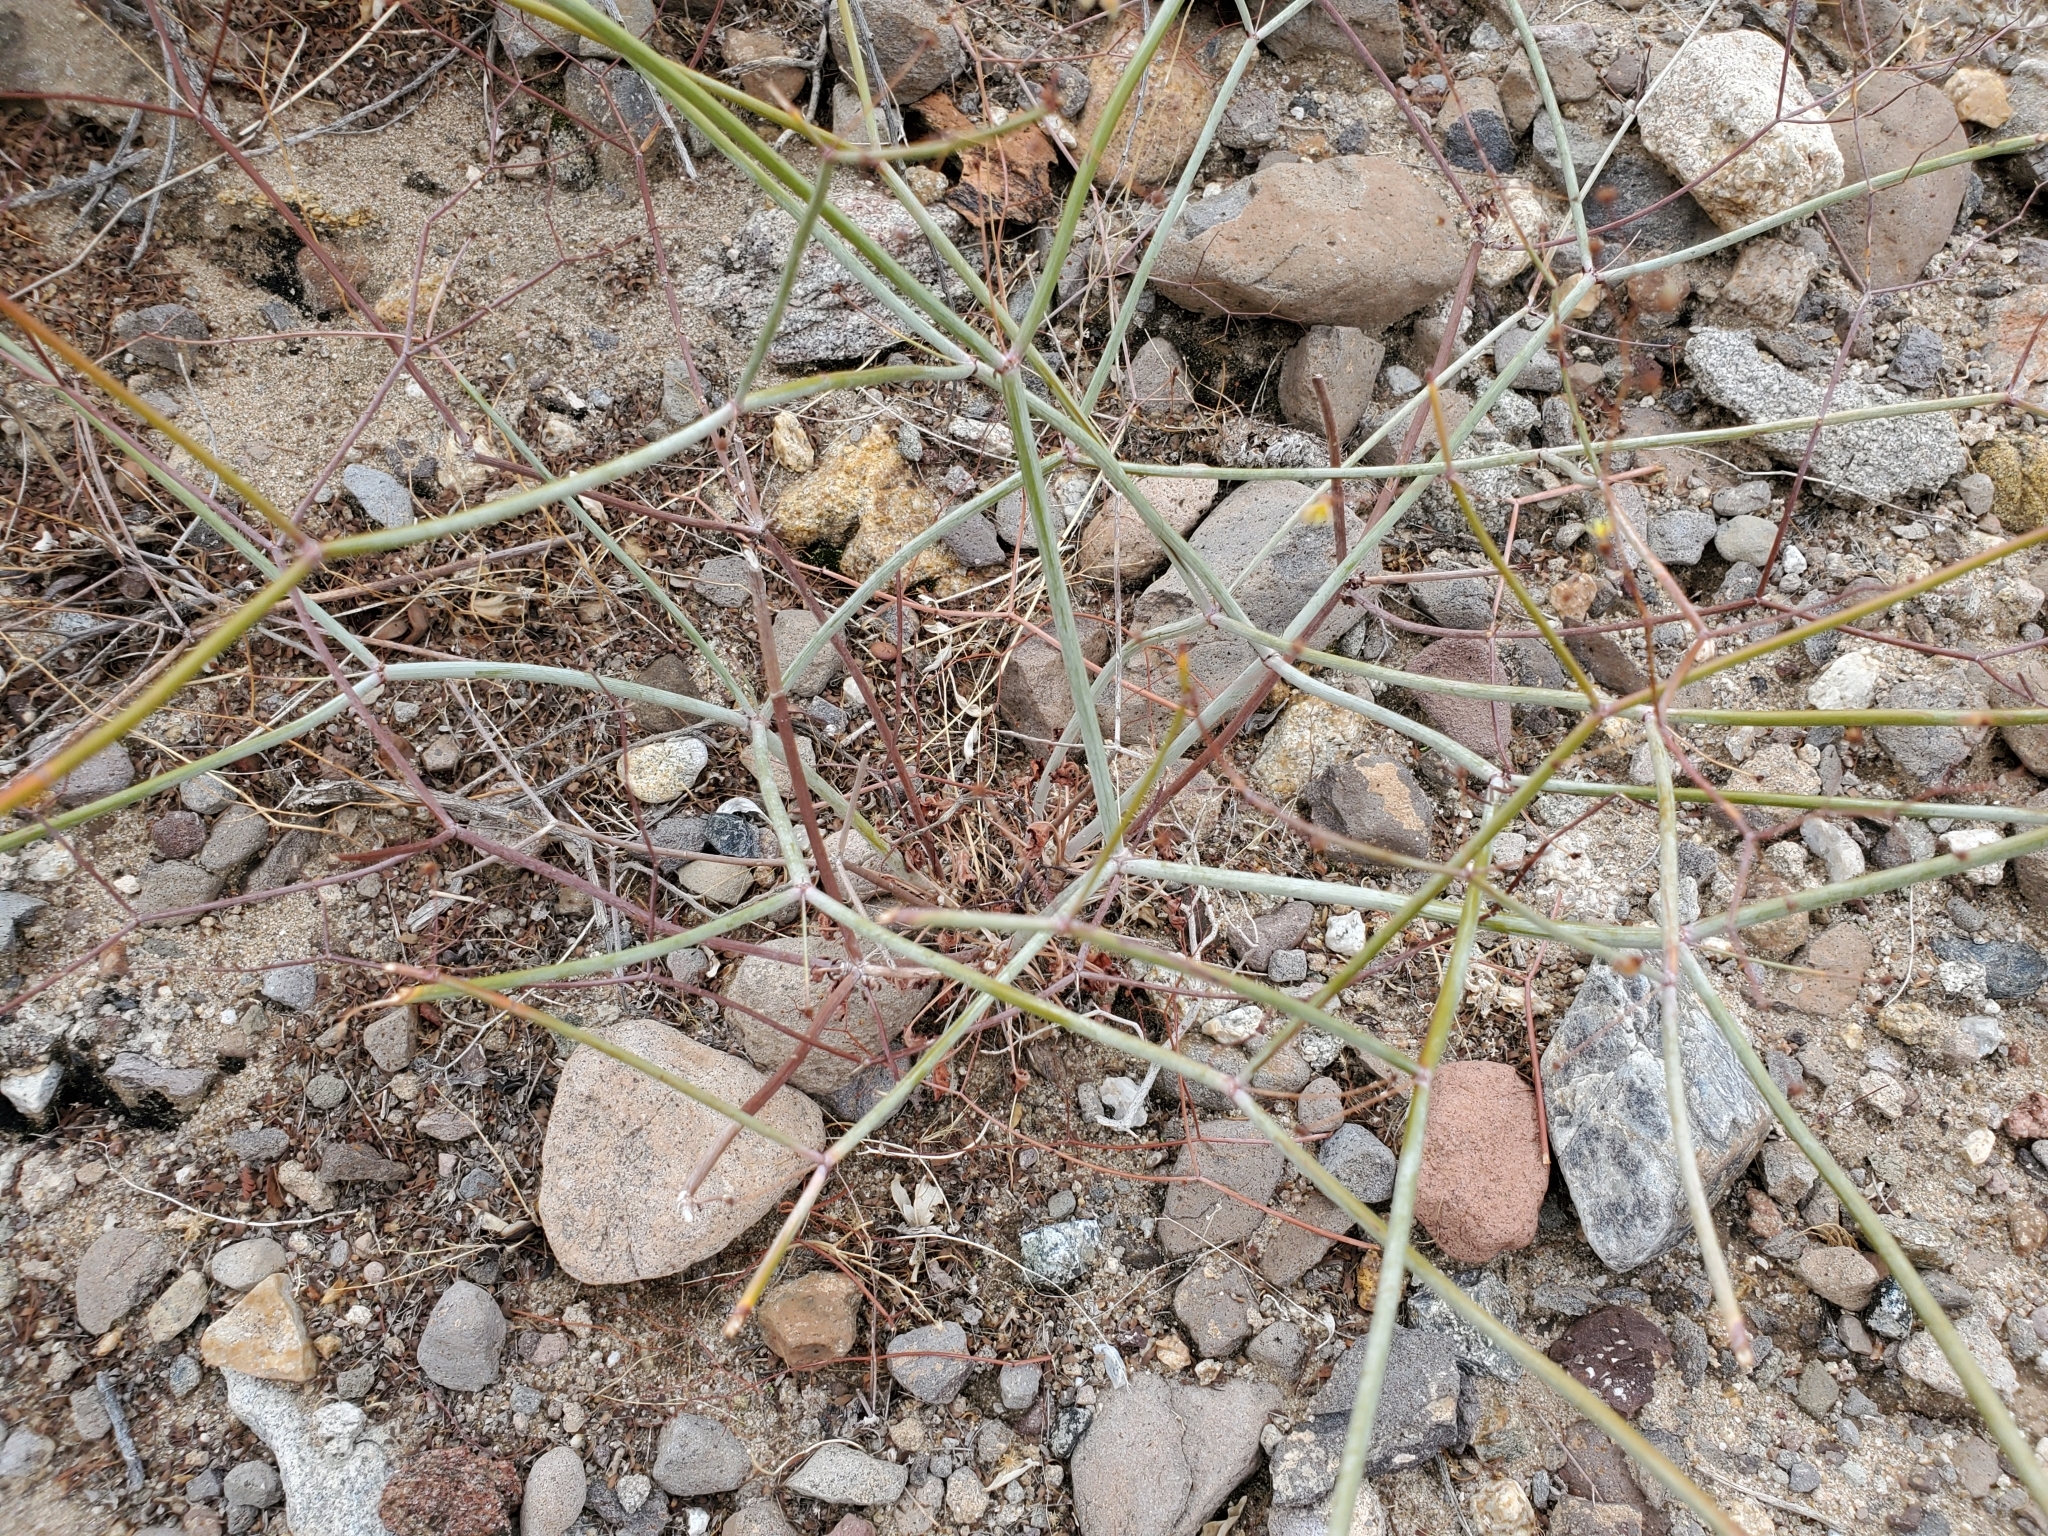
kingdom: Plantae
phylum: Tracheophyta
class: Magnoliopsida
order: Caryophyllales
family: Polygonaceae
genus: Eriogonum
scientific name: Eriogonum inflatum
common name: Desert trumpet
